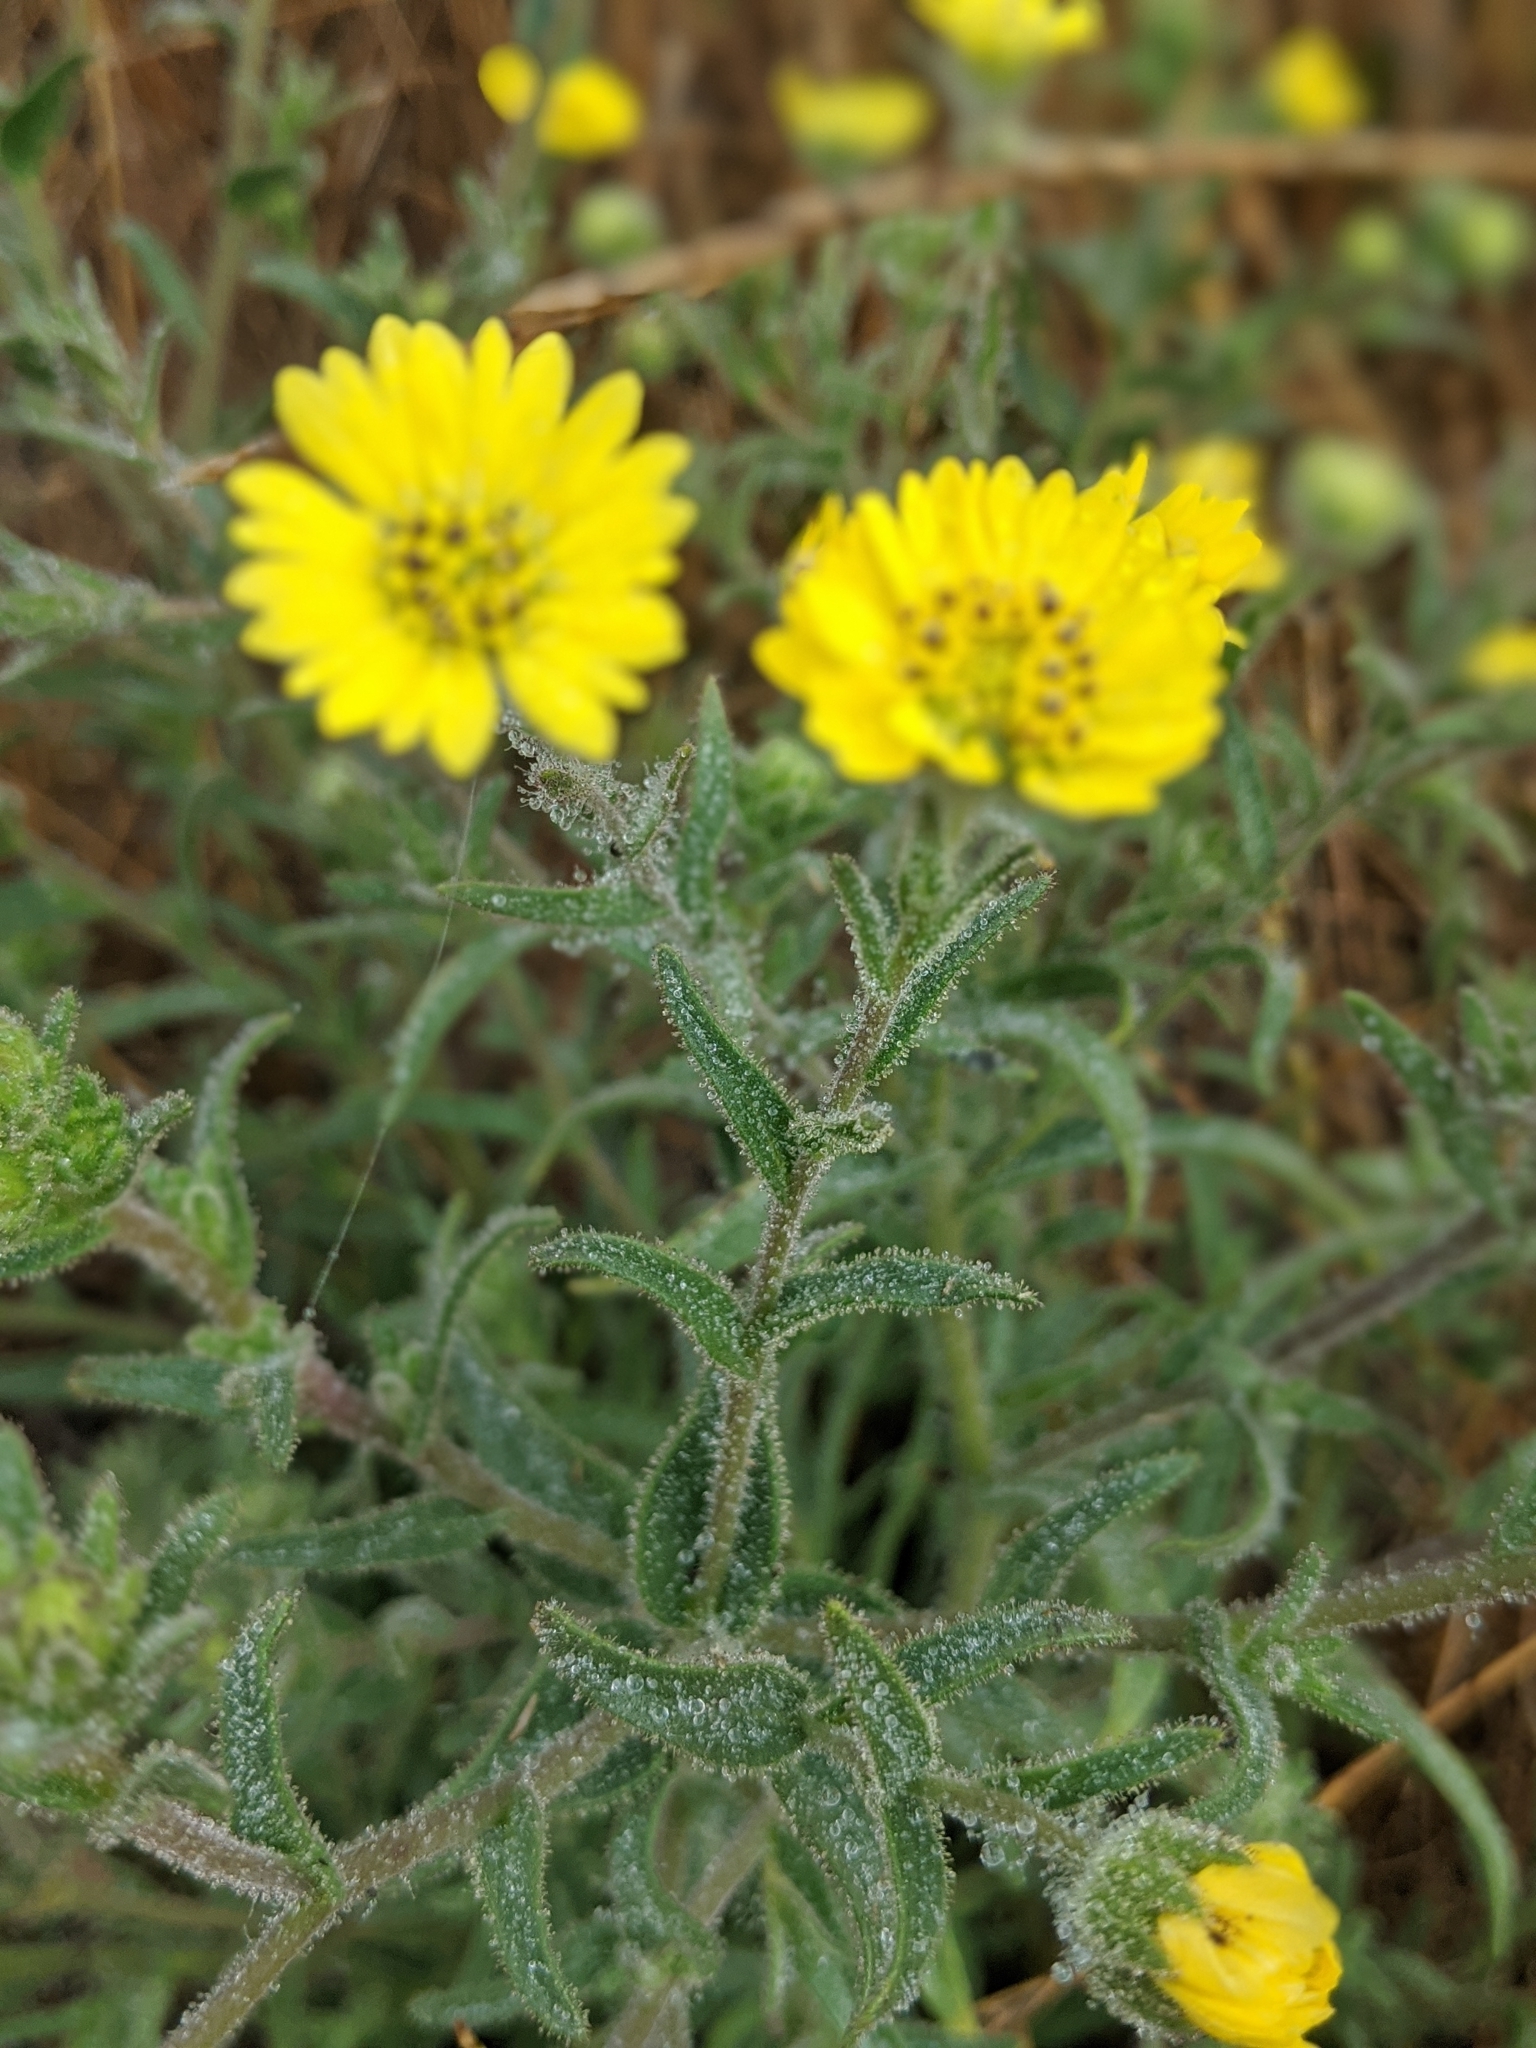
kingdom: Plantae
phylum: Tracheophyta
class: Magnoliopsida
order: Asterales
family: Asteraceae
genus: Hemizonia
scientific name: Hemizonia congesta
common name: Hayfield tarweed
